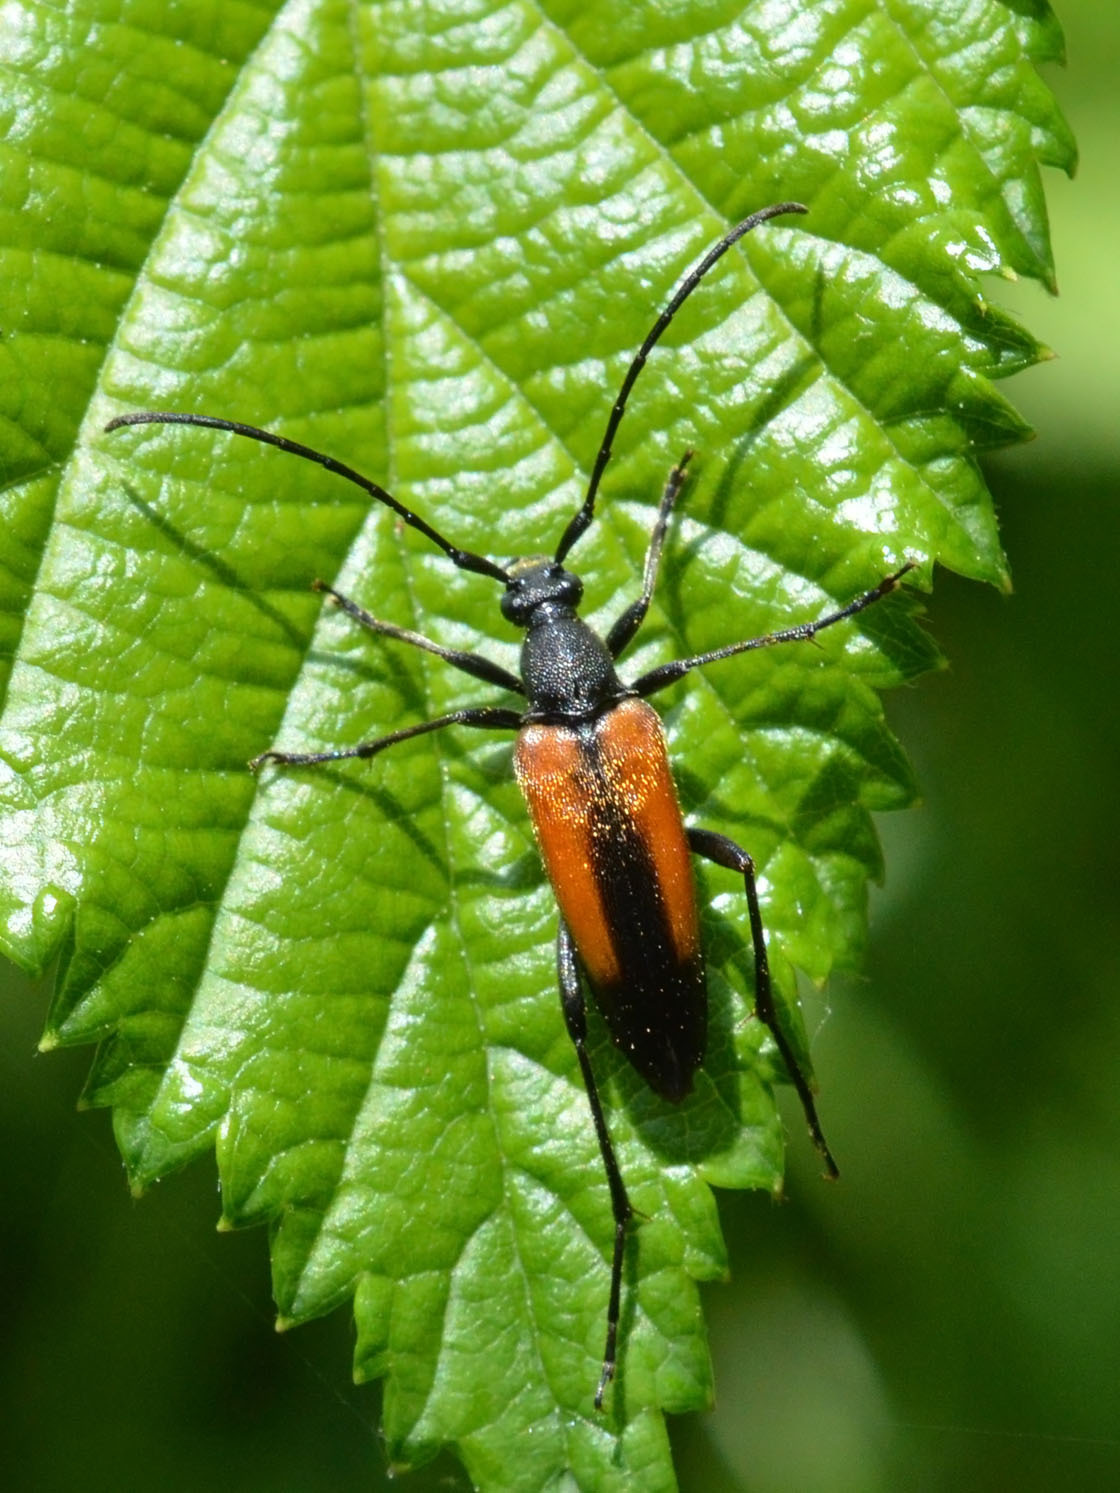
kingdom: Animalia
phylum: Arthropoda
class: Insecta
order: Coleoptera
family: Cerambycidae
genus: Stenurella
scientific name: Stenurella melanura
